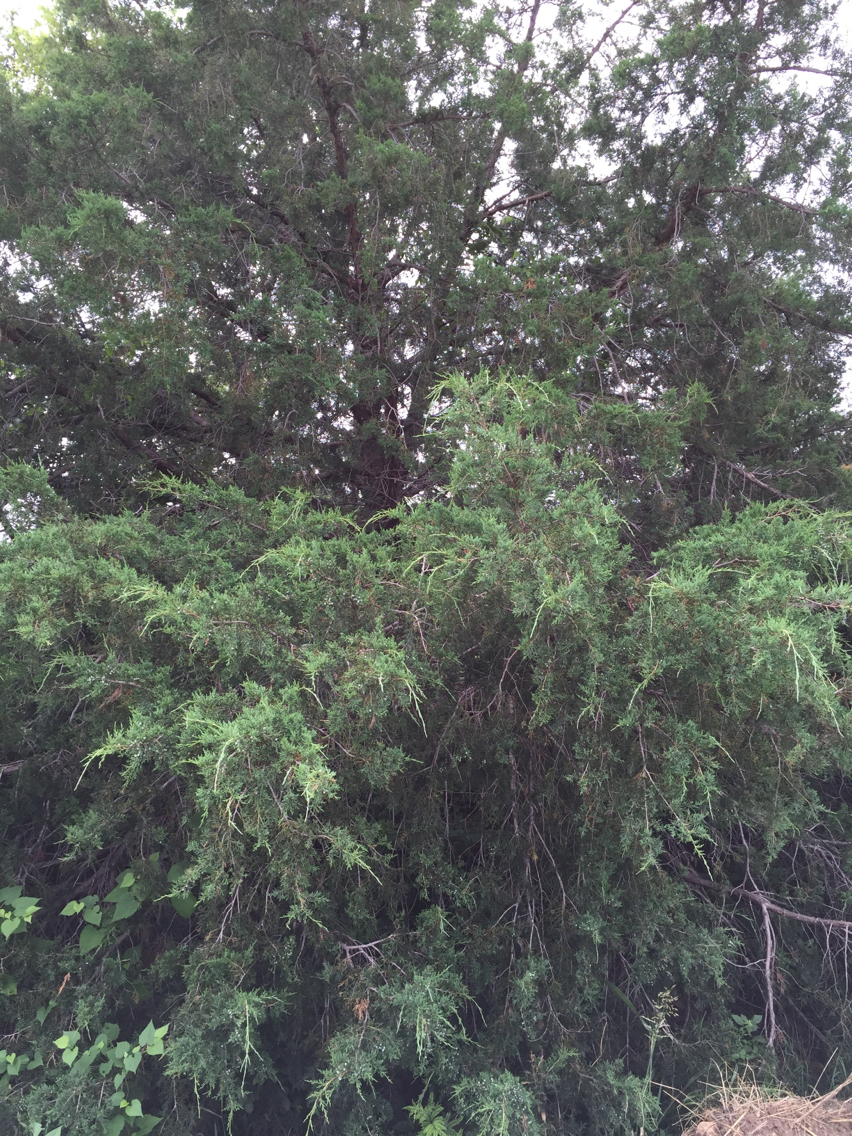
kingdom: Plantae
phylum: Tracheophyta
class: Pinopsida
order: Pinales
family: Cupressaceae
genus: Juniperus
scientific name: Juniperus virginiana
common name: Red juniper
